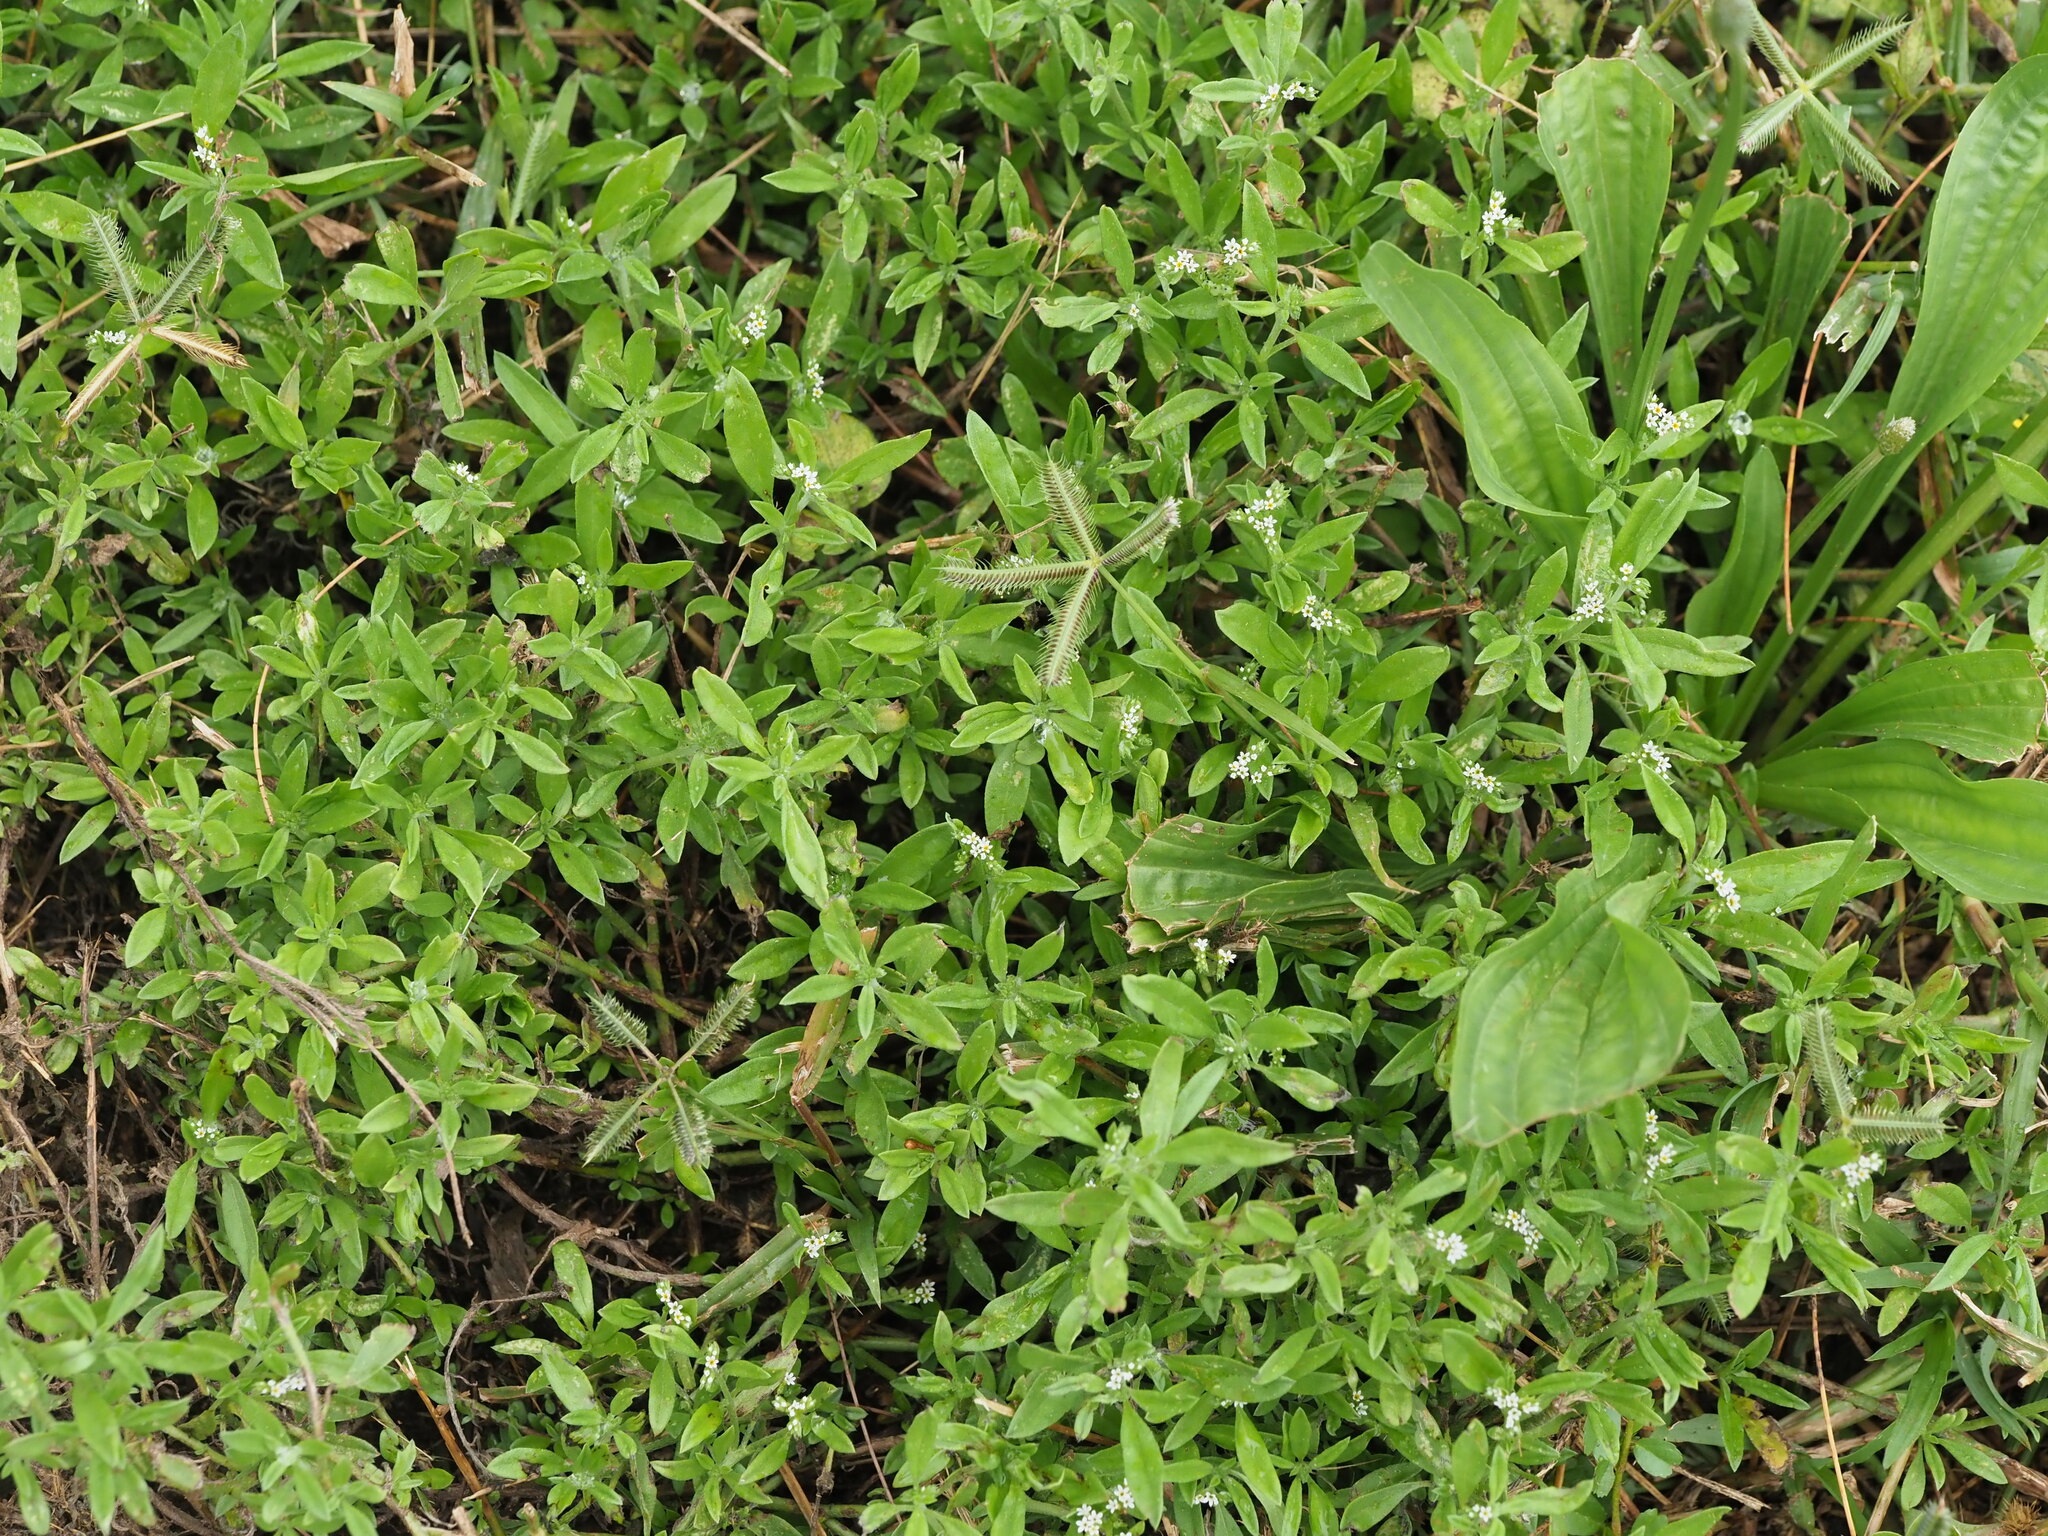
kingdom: Plantae
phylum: Tracheophyta
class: Magnoliopsida
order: Boraginales
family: Heliotropiaceae
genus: Euploca
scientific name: Euploca procumbens
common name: Fourspike heliotrope
